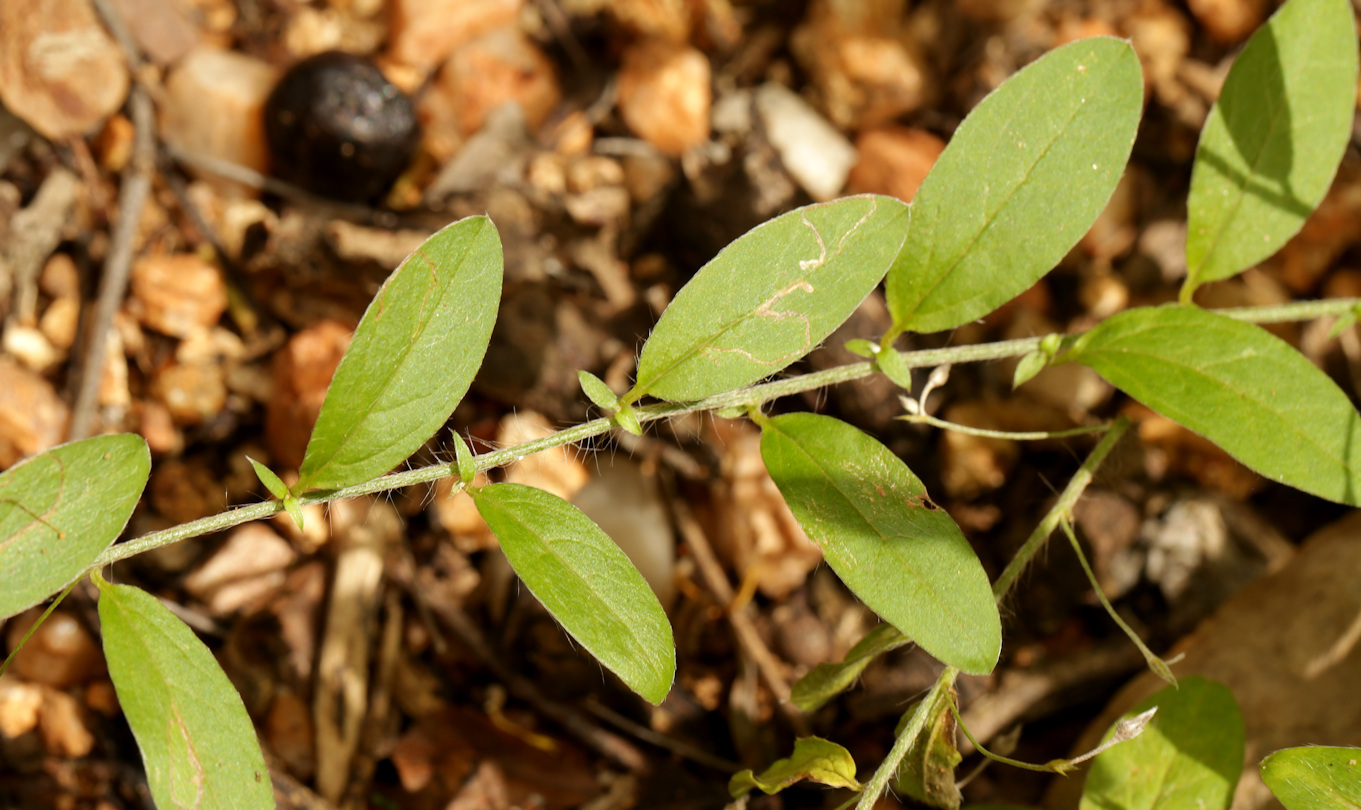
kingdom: Plantae
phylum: Tracheophyta
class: Magnoliopsida
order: Solanales
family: Convolvulaceae
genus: Evolvulus
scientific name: Evolvulus alsinoides
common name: Slender dwarf morning-glory
